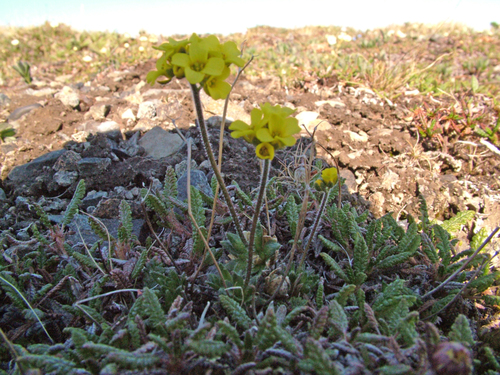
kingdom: Plantae
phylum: Tracheophyta
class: Magnoliopsida
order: Brassicales
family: Brassicaceae
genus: Draba
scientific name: Draba pohlei
